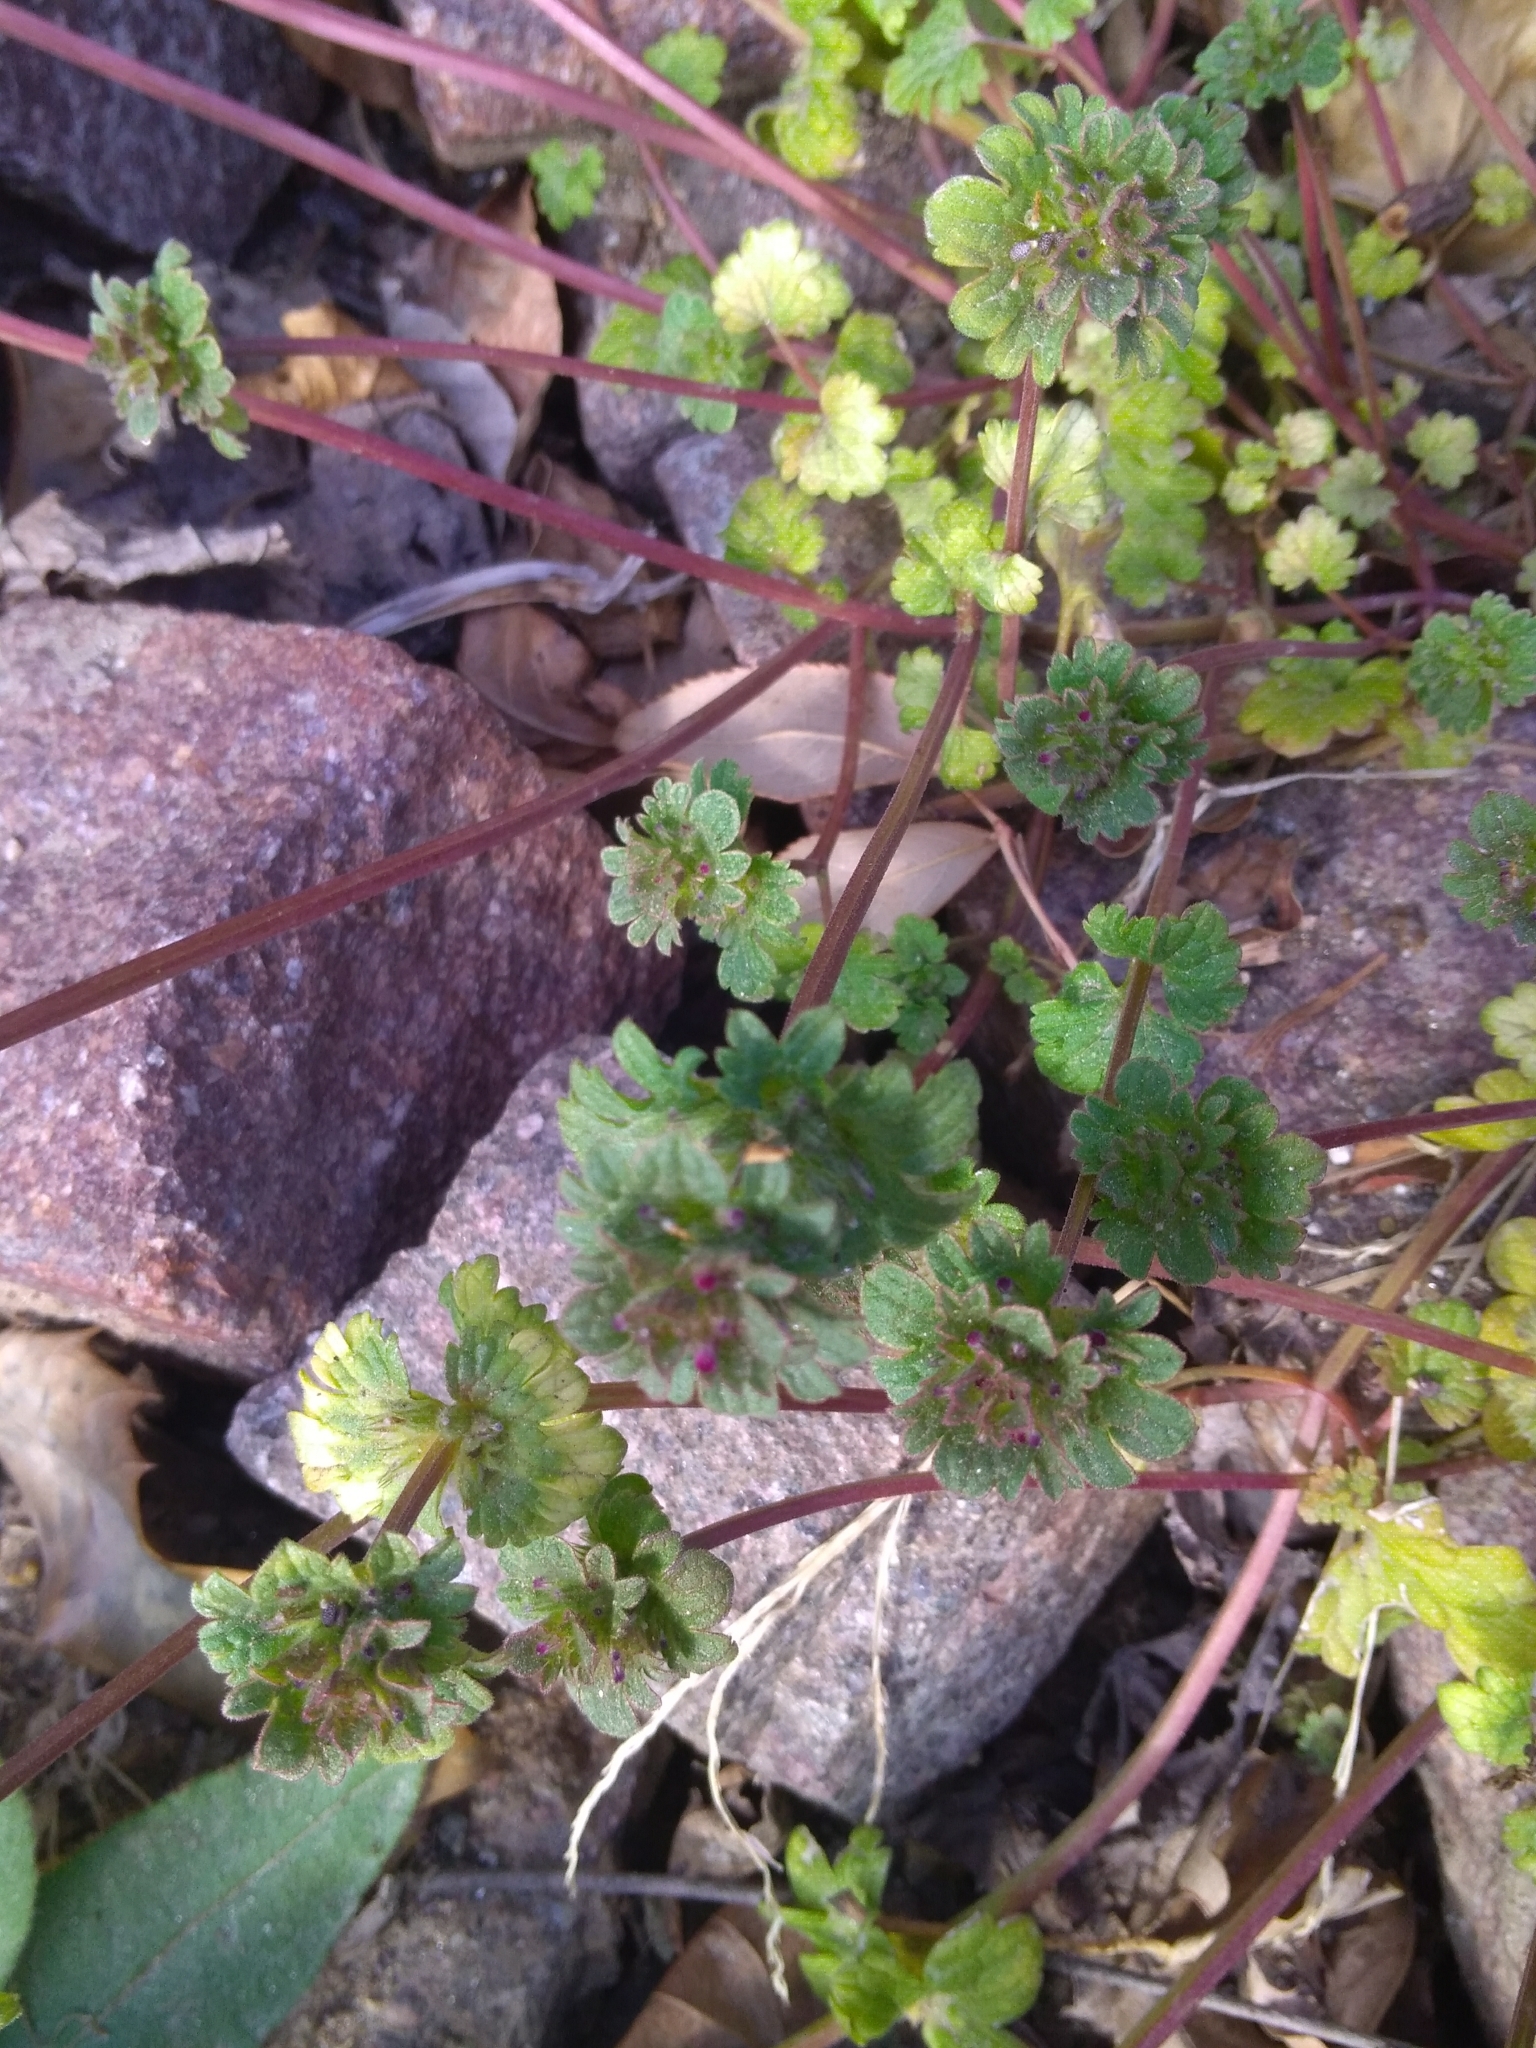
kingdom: Plantae
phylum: Tracheophyta
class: Magnoliopsida
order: Lamiales
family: Lamiaceae
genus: Lamium
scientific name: Lamium amplexicaule
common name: Henbit dead-nettle
